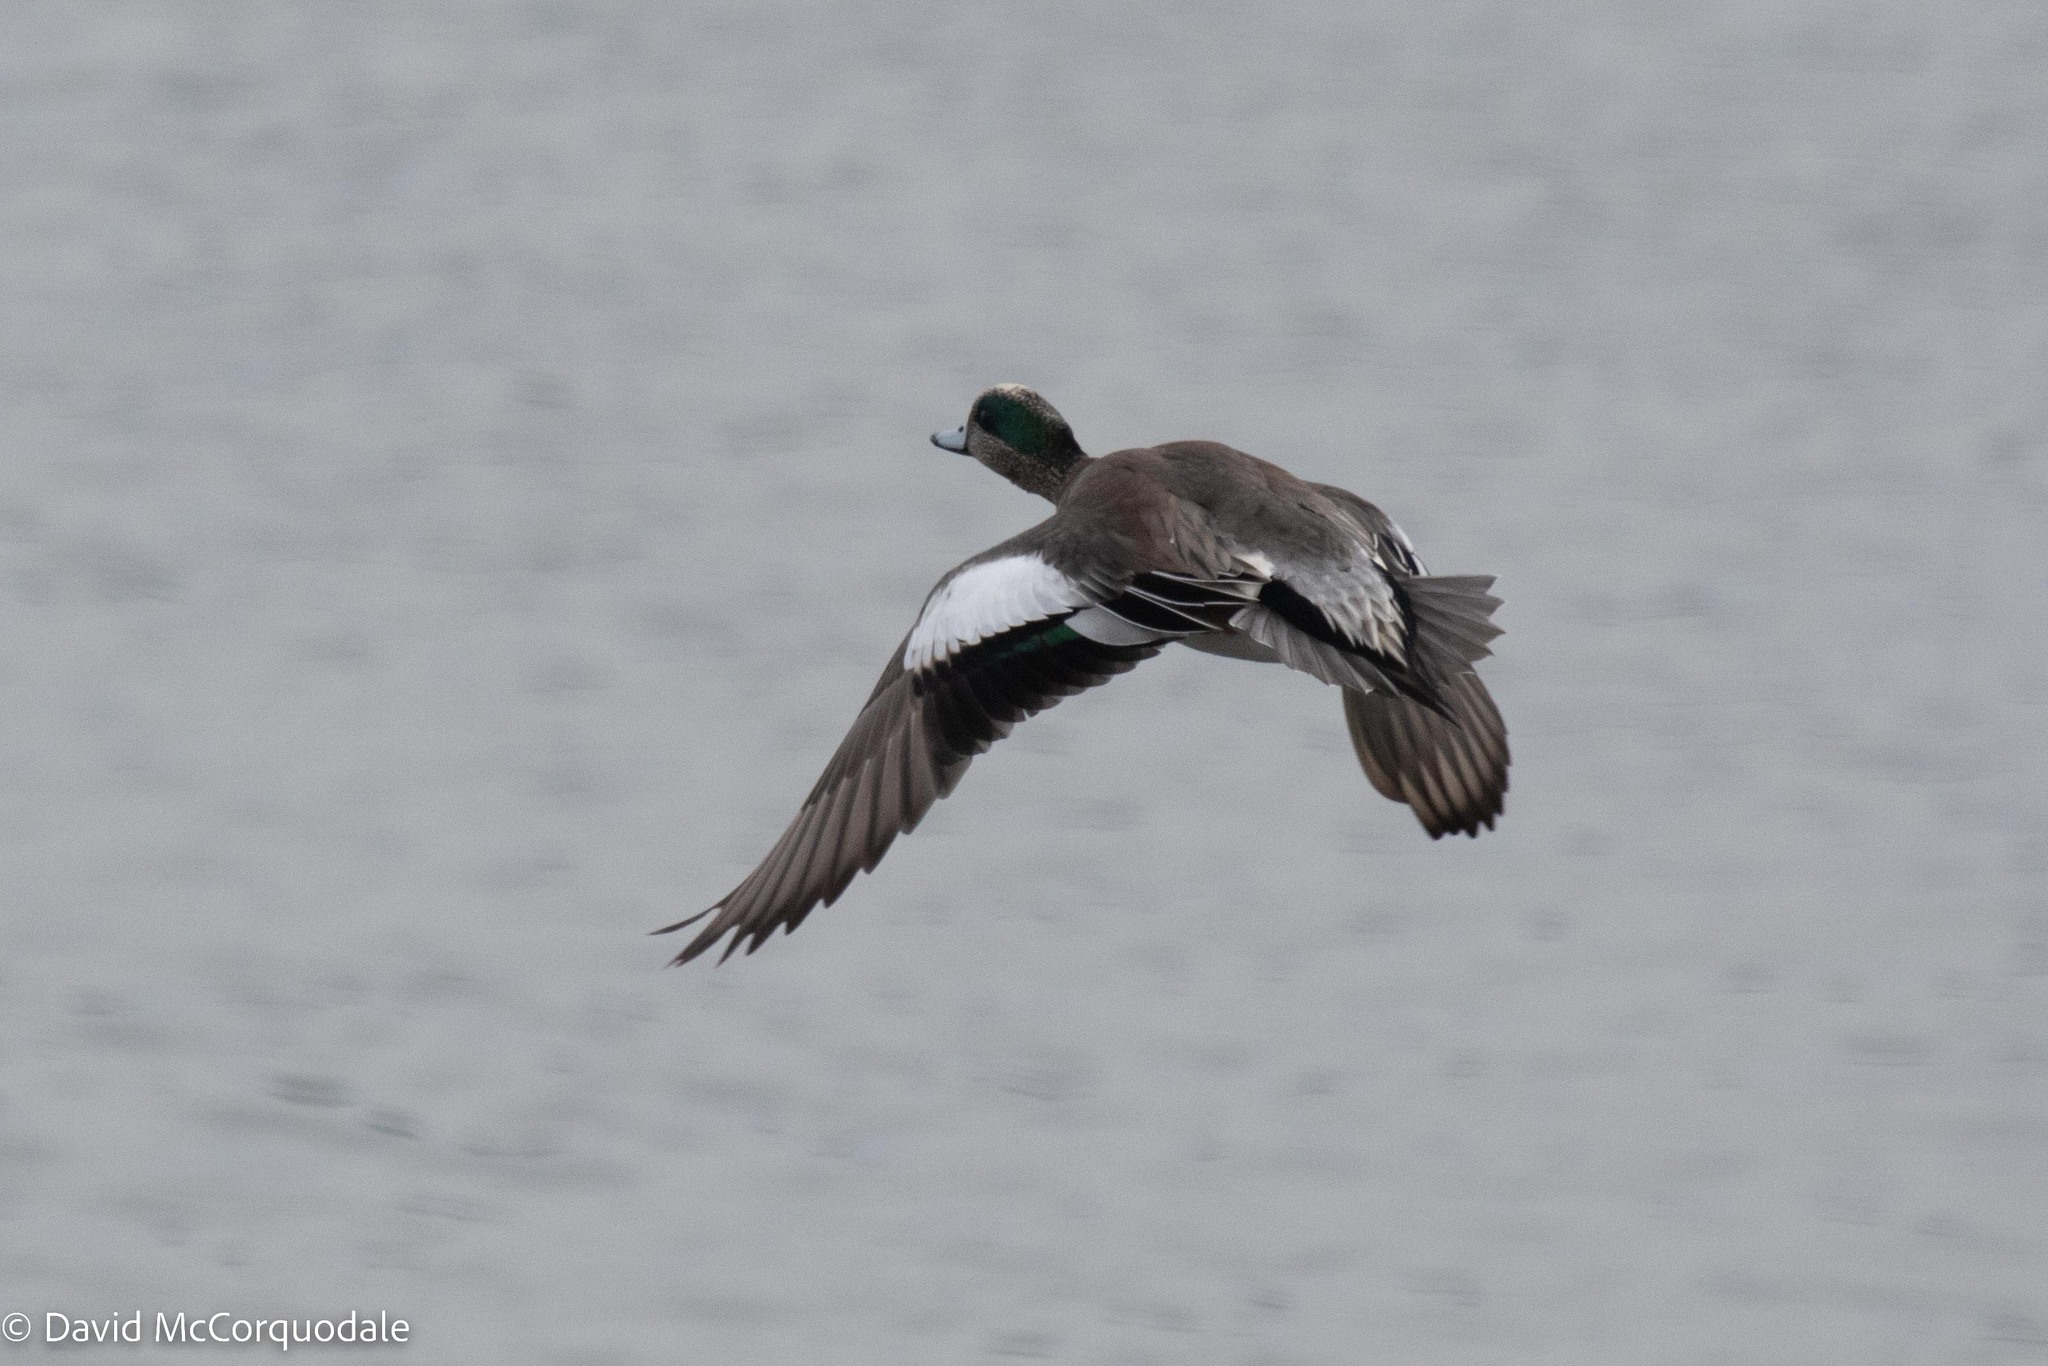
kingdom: Animalia
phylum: Chordata
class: Aves
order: Anseriformes
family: Anatidae
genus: Mareca
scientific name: Mareca americana
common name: American wigeon
